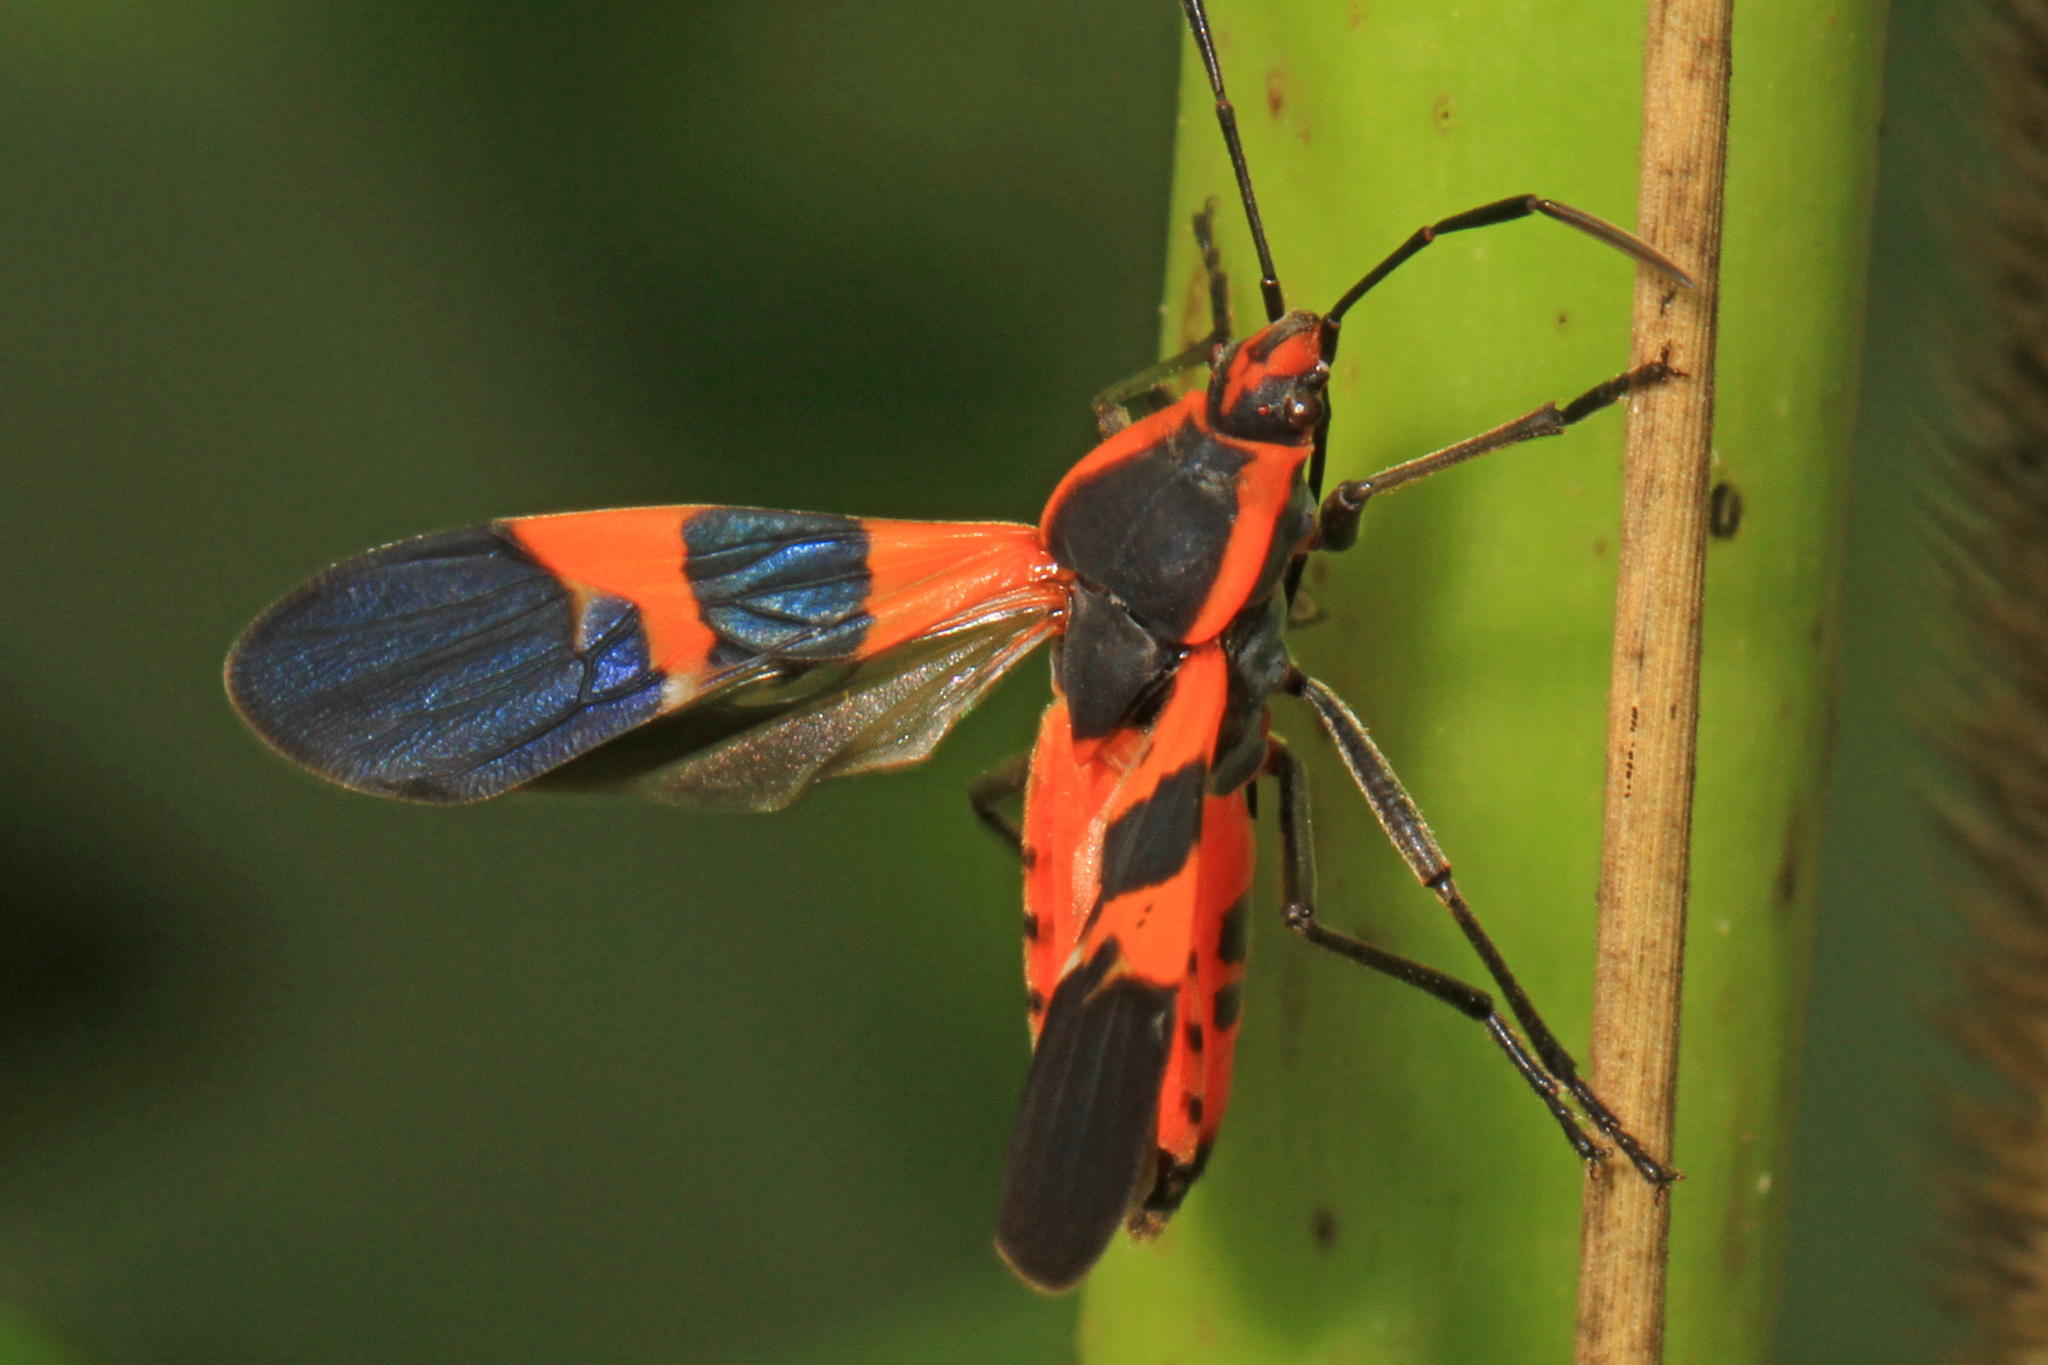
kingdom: Animalia
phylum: Arthropoda
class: Insecta
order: Hemiptera
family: Lygaeidae
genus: Oncopeltus
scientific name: Oncopeltus fasciatus
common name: Large milkweed bug
